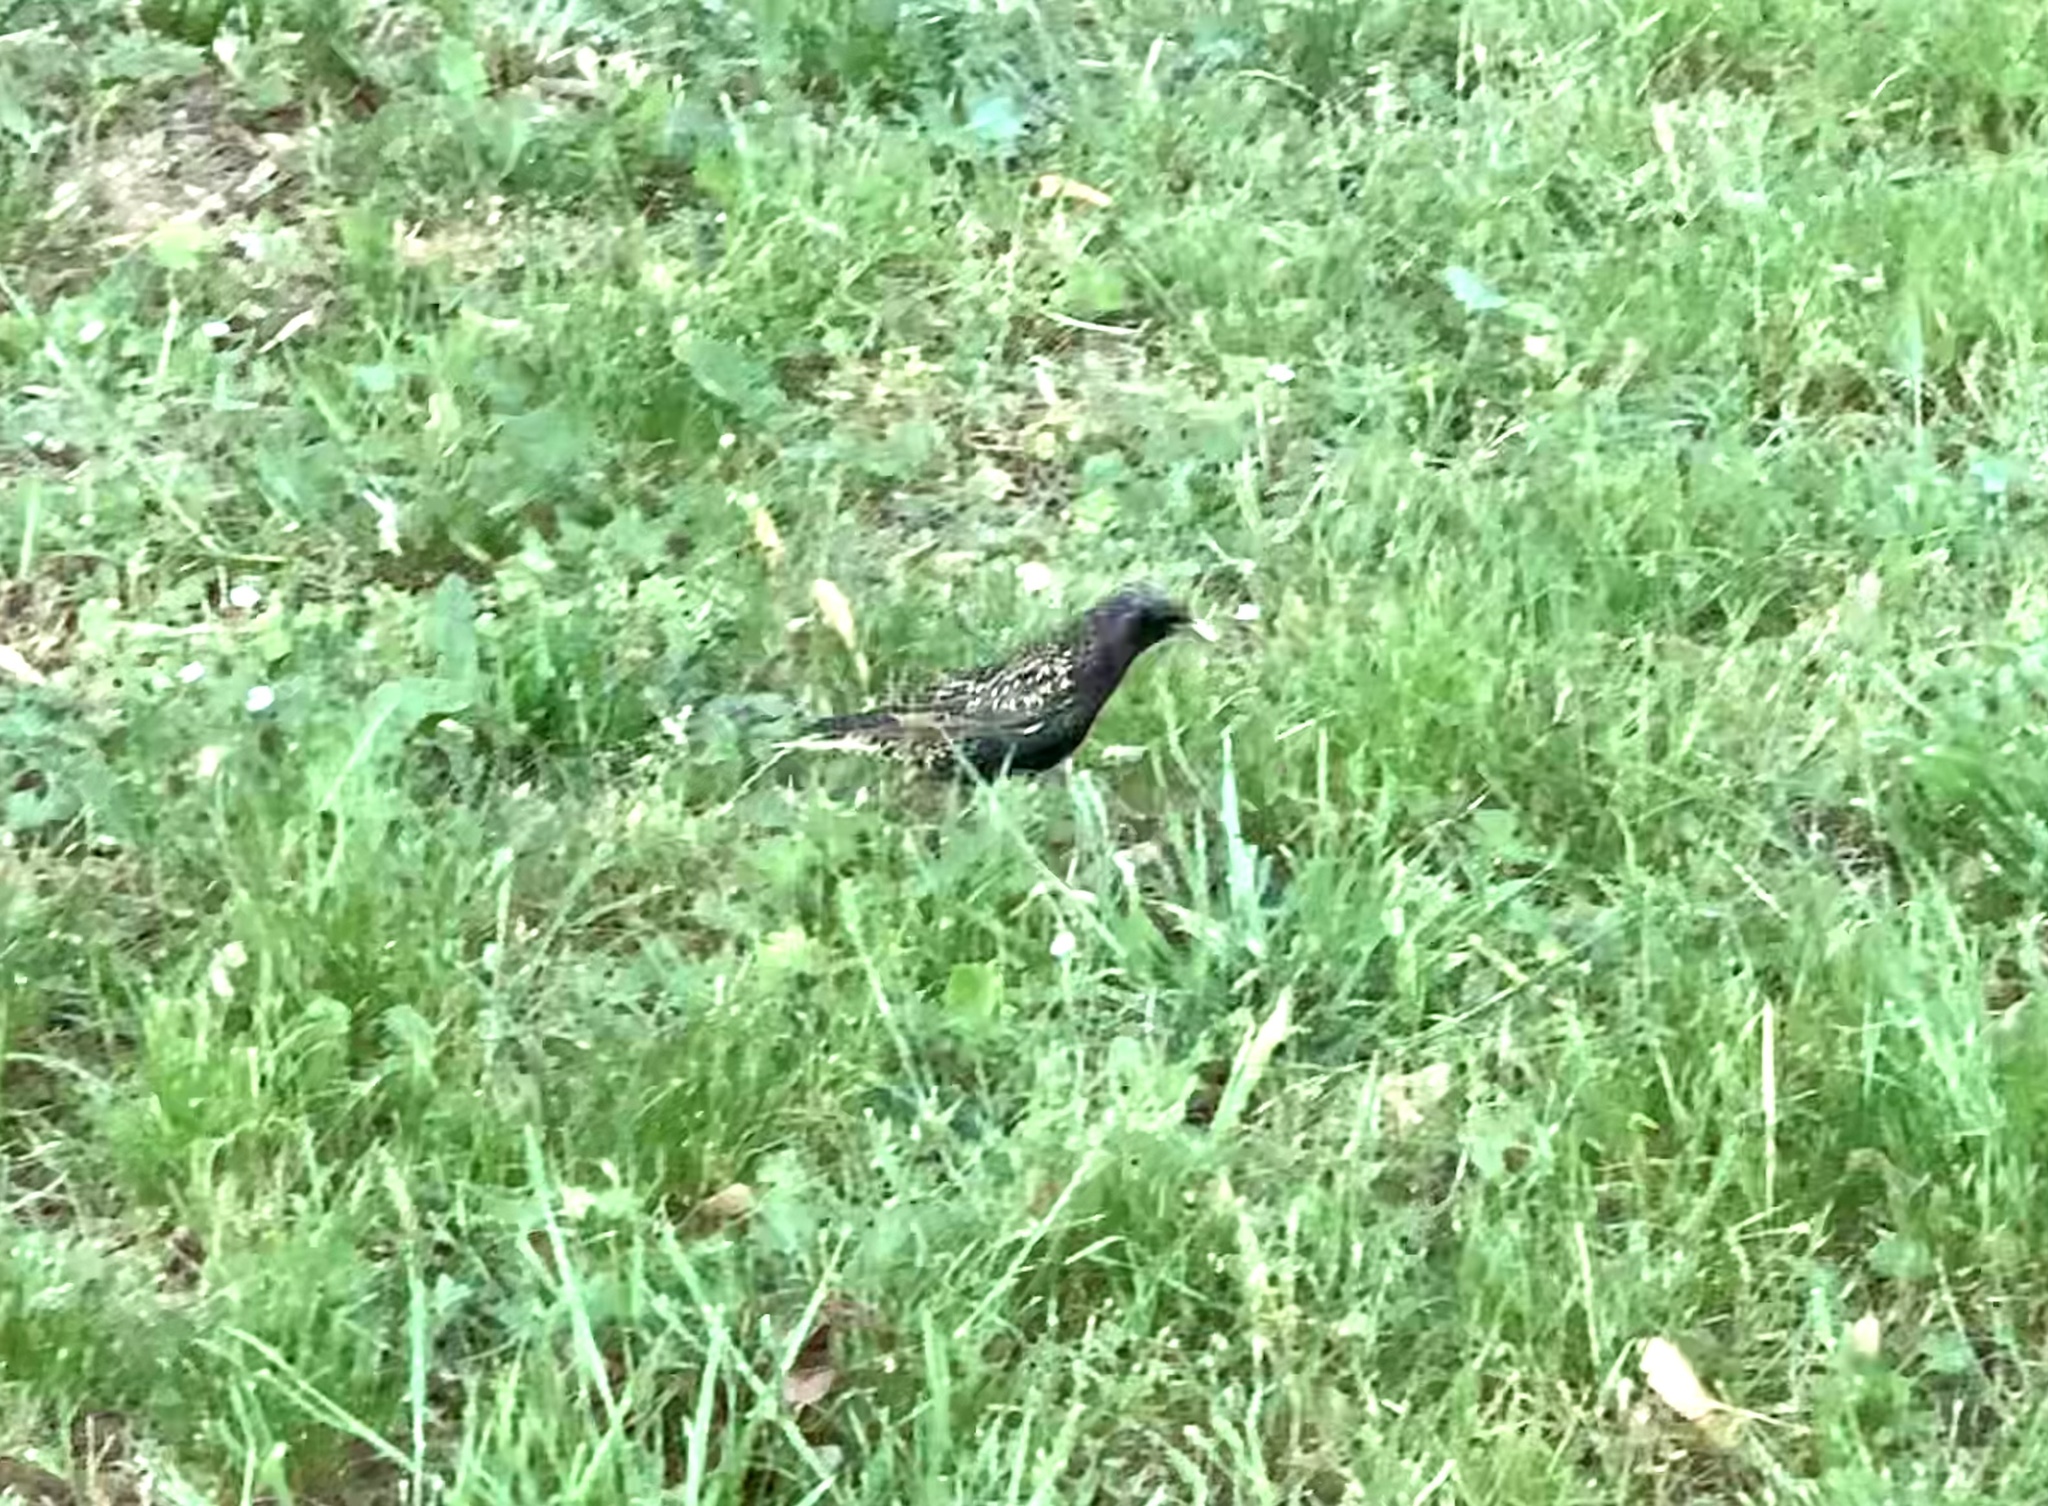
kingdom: Animalia
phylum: Chordata
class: Aves
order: Passeriformes
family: Sturnidae
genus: Sturnus
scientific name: Sturnus vulgaris
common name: Common starling
